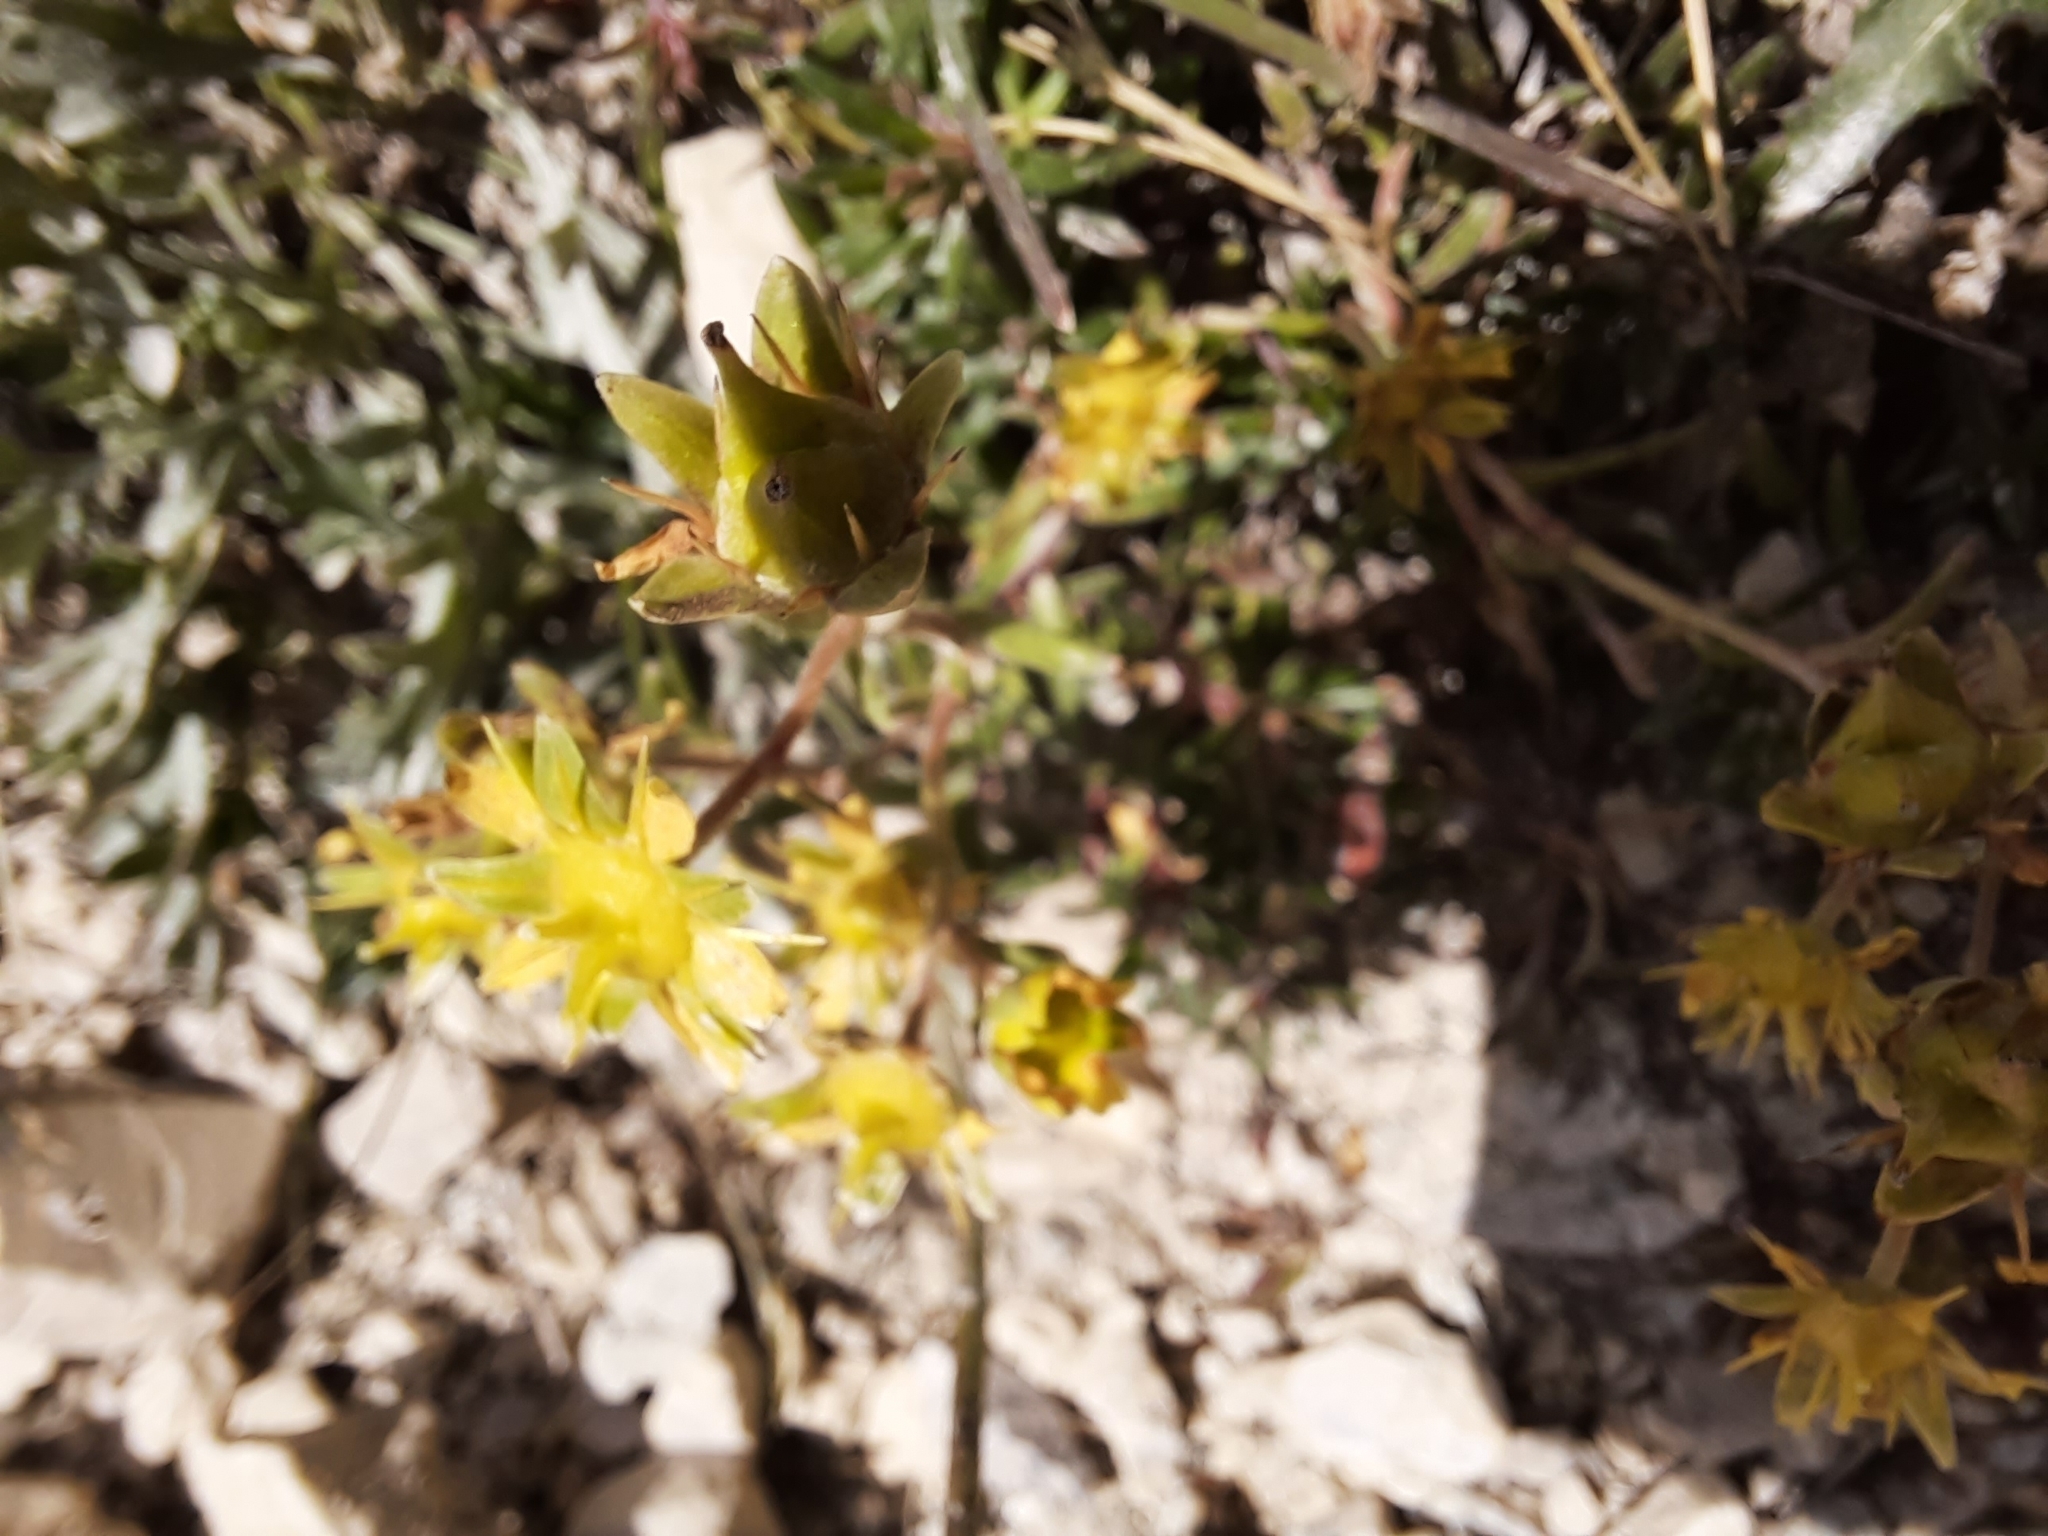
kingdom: Plantae
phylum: Tracheophyta
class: Magnoliopsida
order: Saxifragales
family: Saxifragaceae
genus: Saxifraga
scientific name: Saxifraga aizoides
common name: Yellow mountain saxifrage
